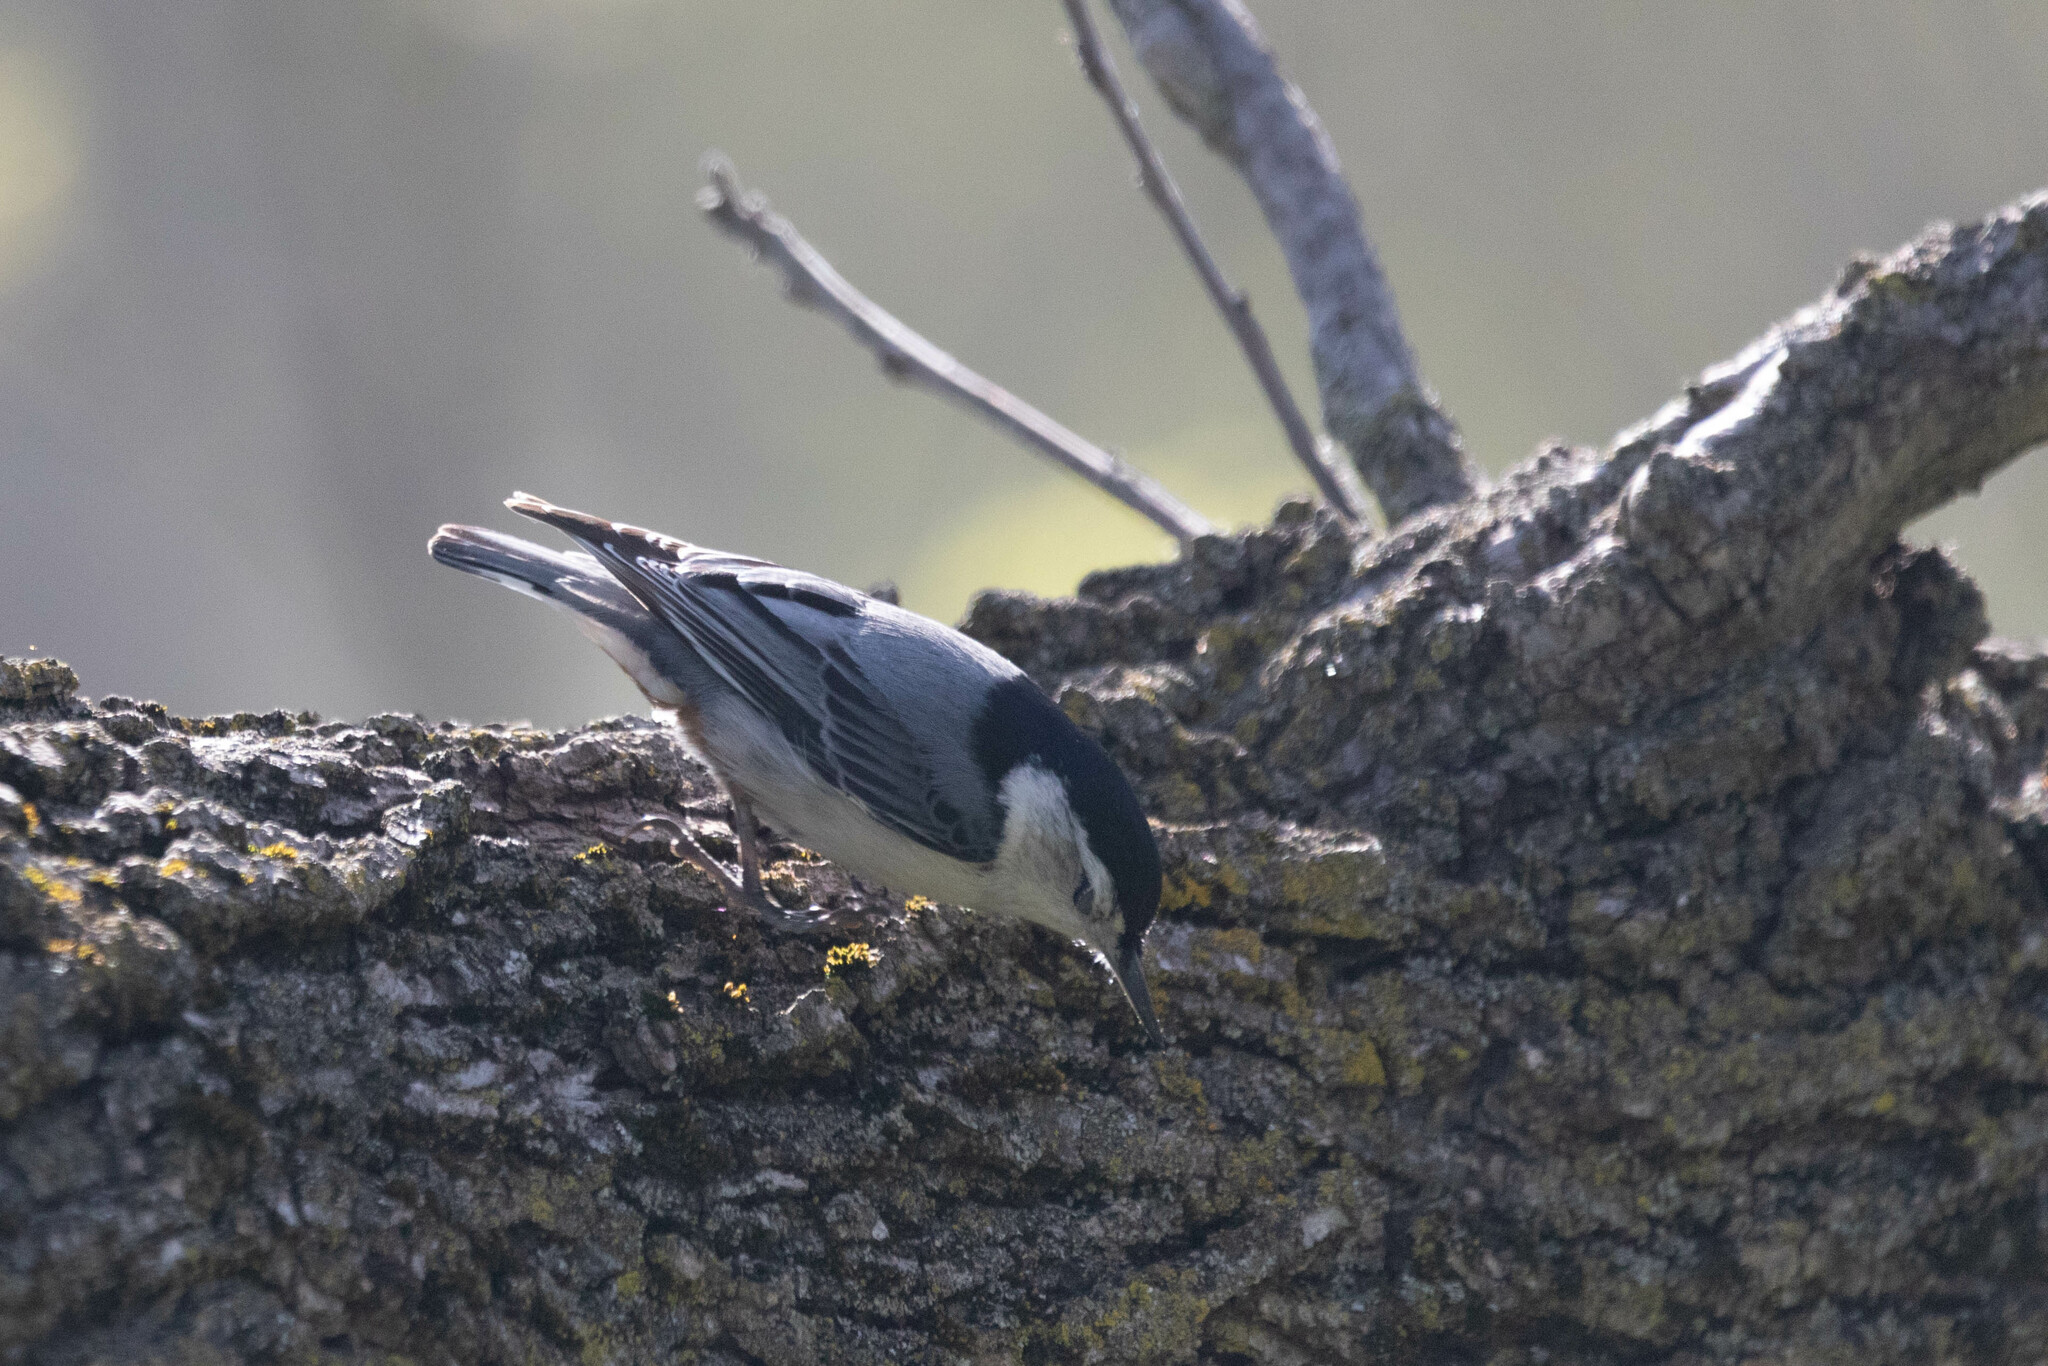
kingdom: Animalia
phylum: Chordata
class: Aves
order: Passeriformes
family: Sittidae
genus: Sitta
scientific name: Sitta carolinensis
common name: White-breasted nuthatch
